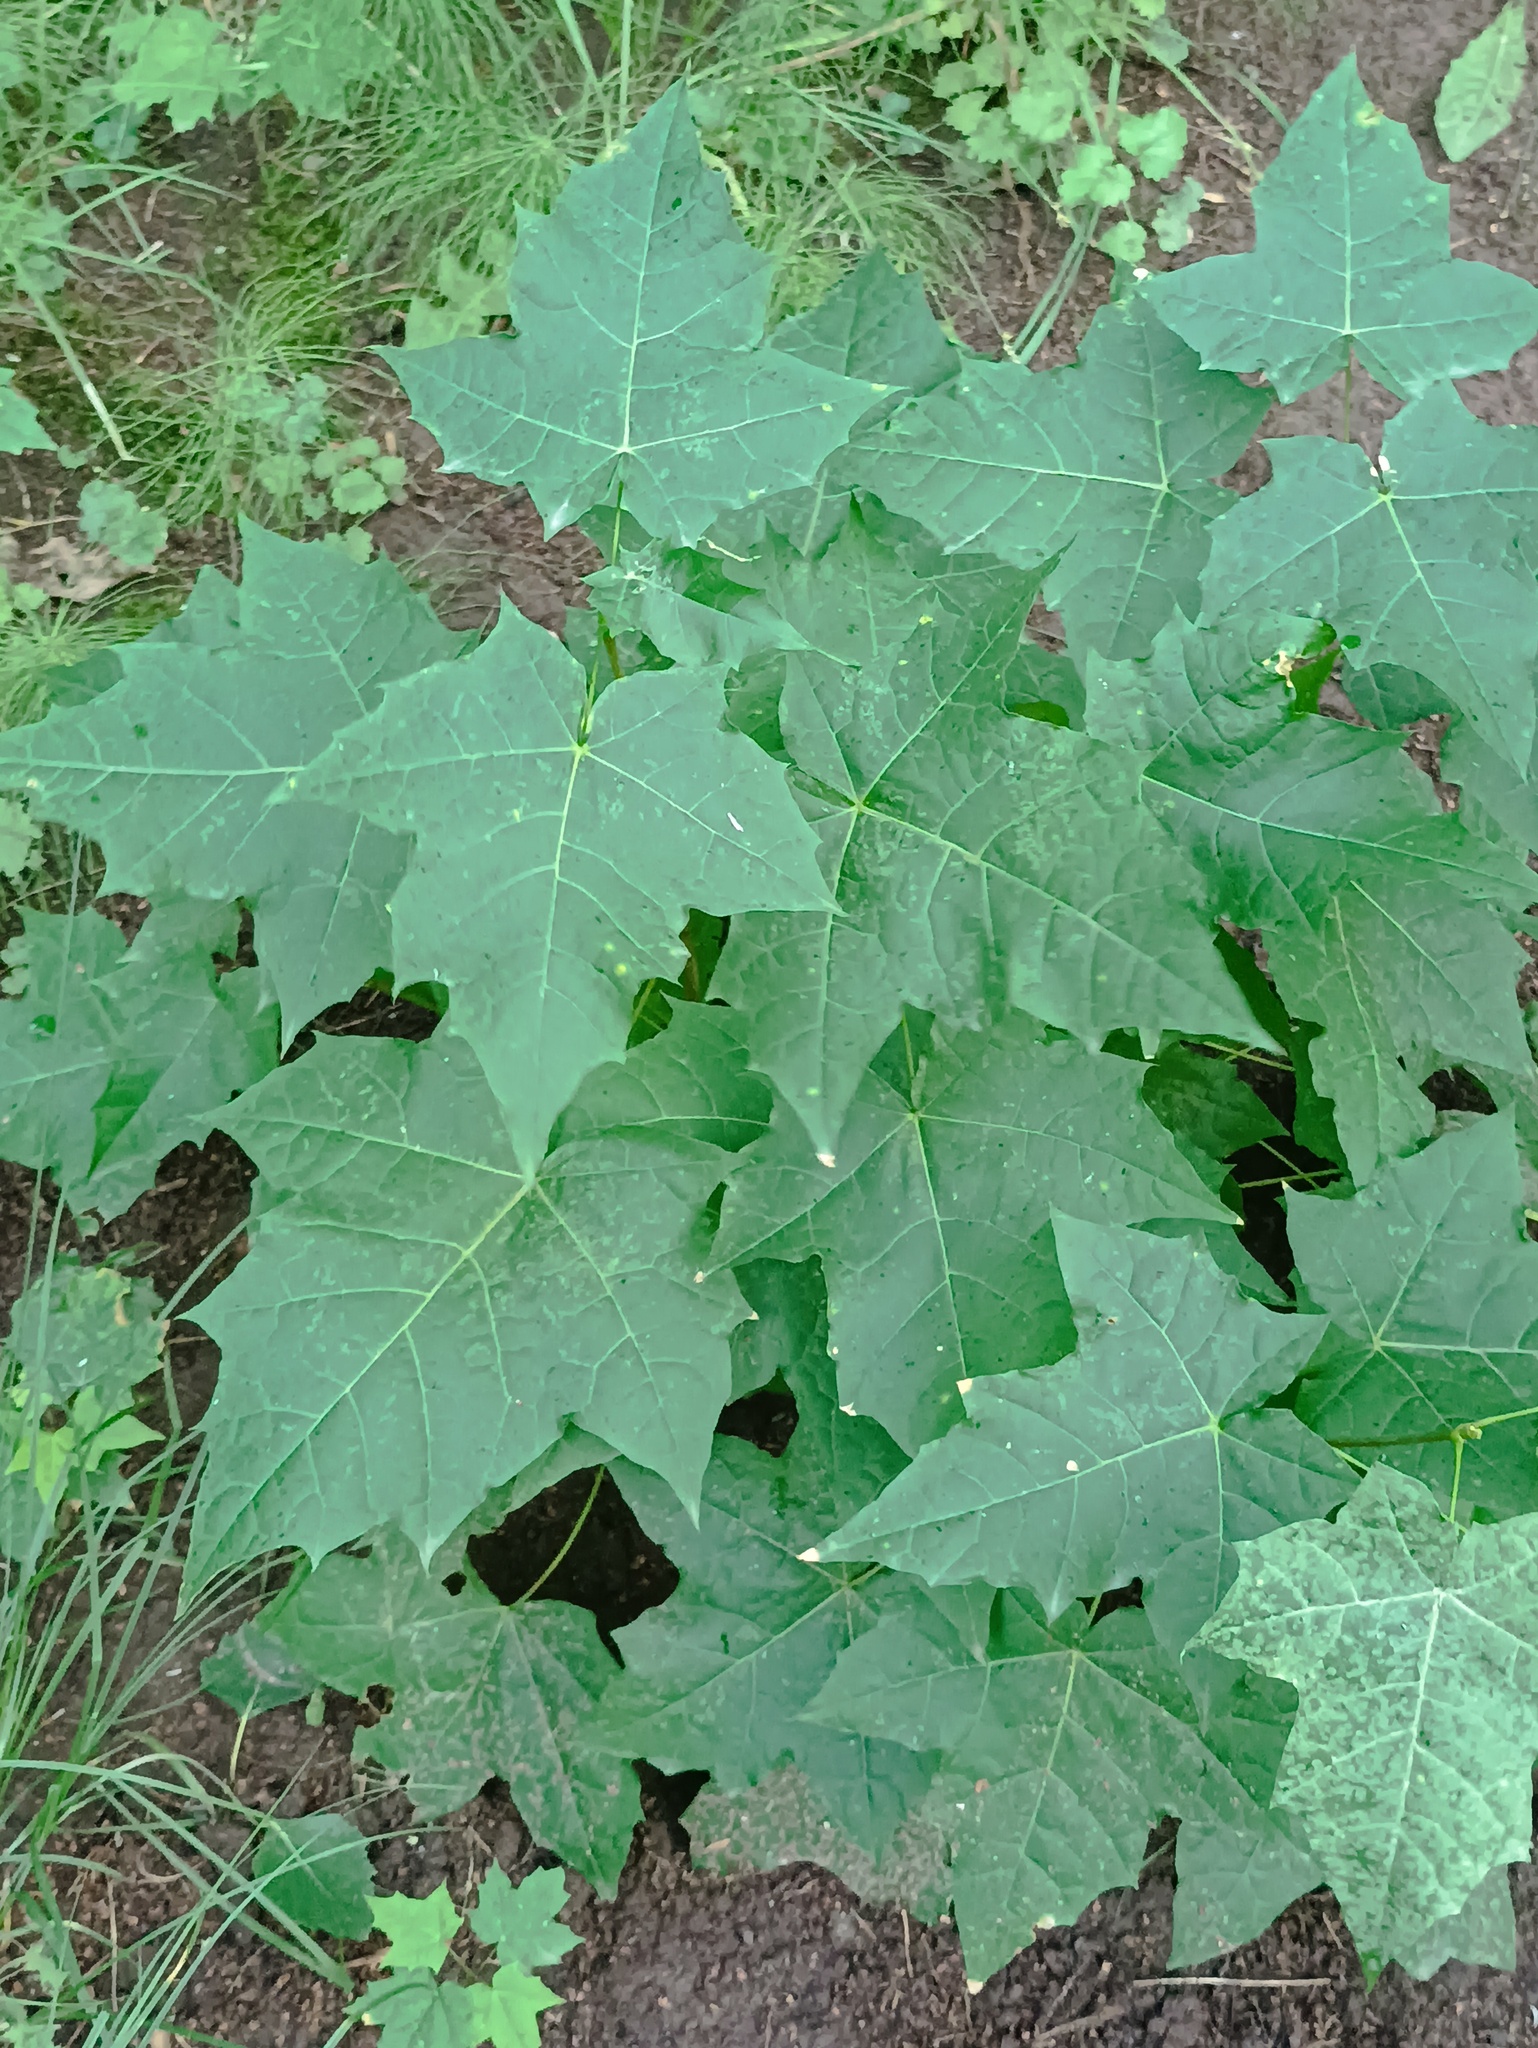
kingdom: Plantae
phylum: Tracheophyta
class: Magnoliopsida
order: Sapindales
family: Sapindaceae
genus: Acer
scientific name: Acer platanoides
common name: Norway maple
